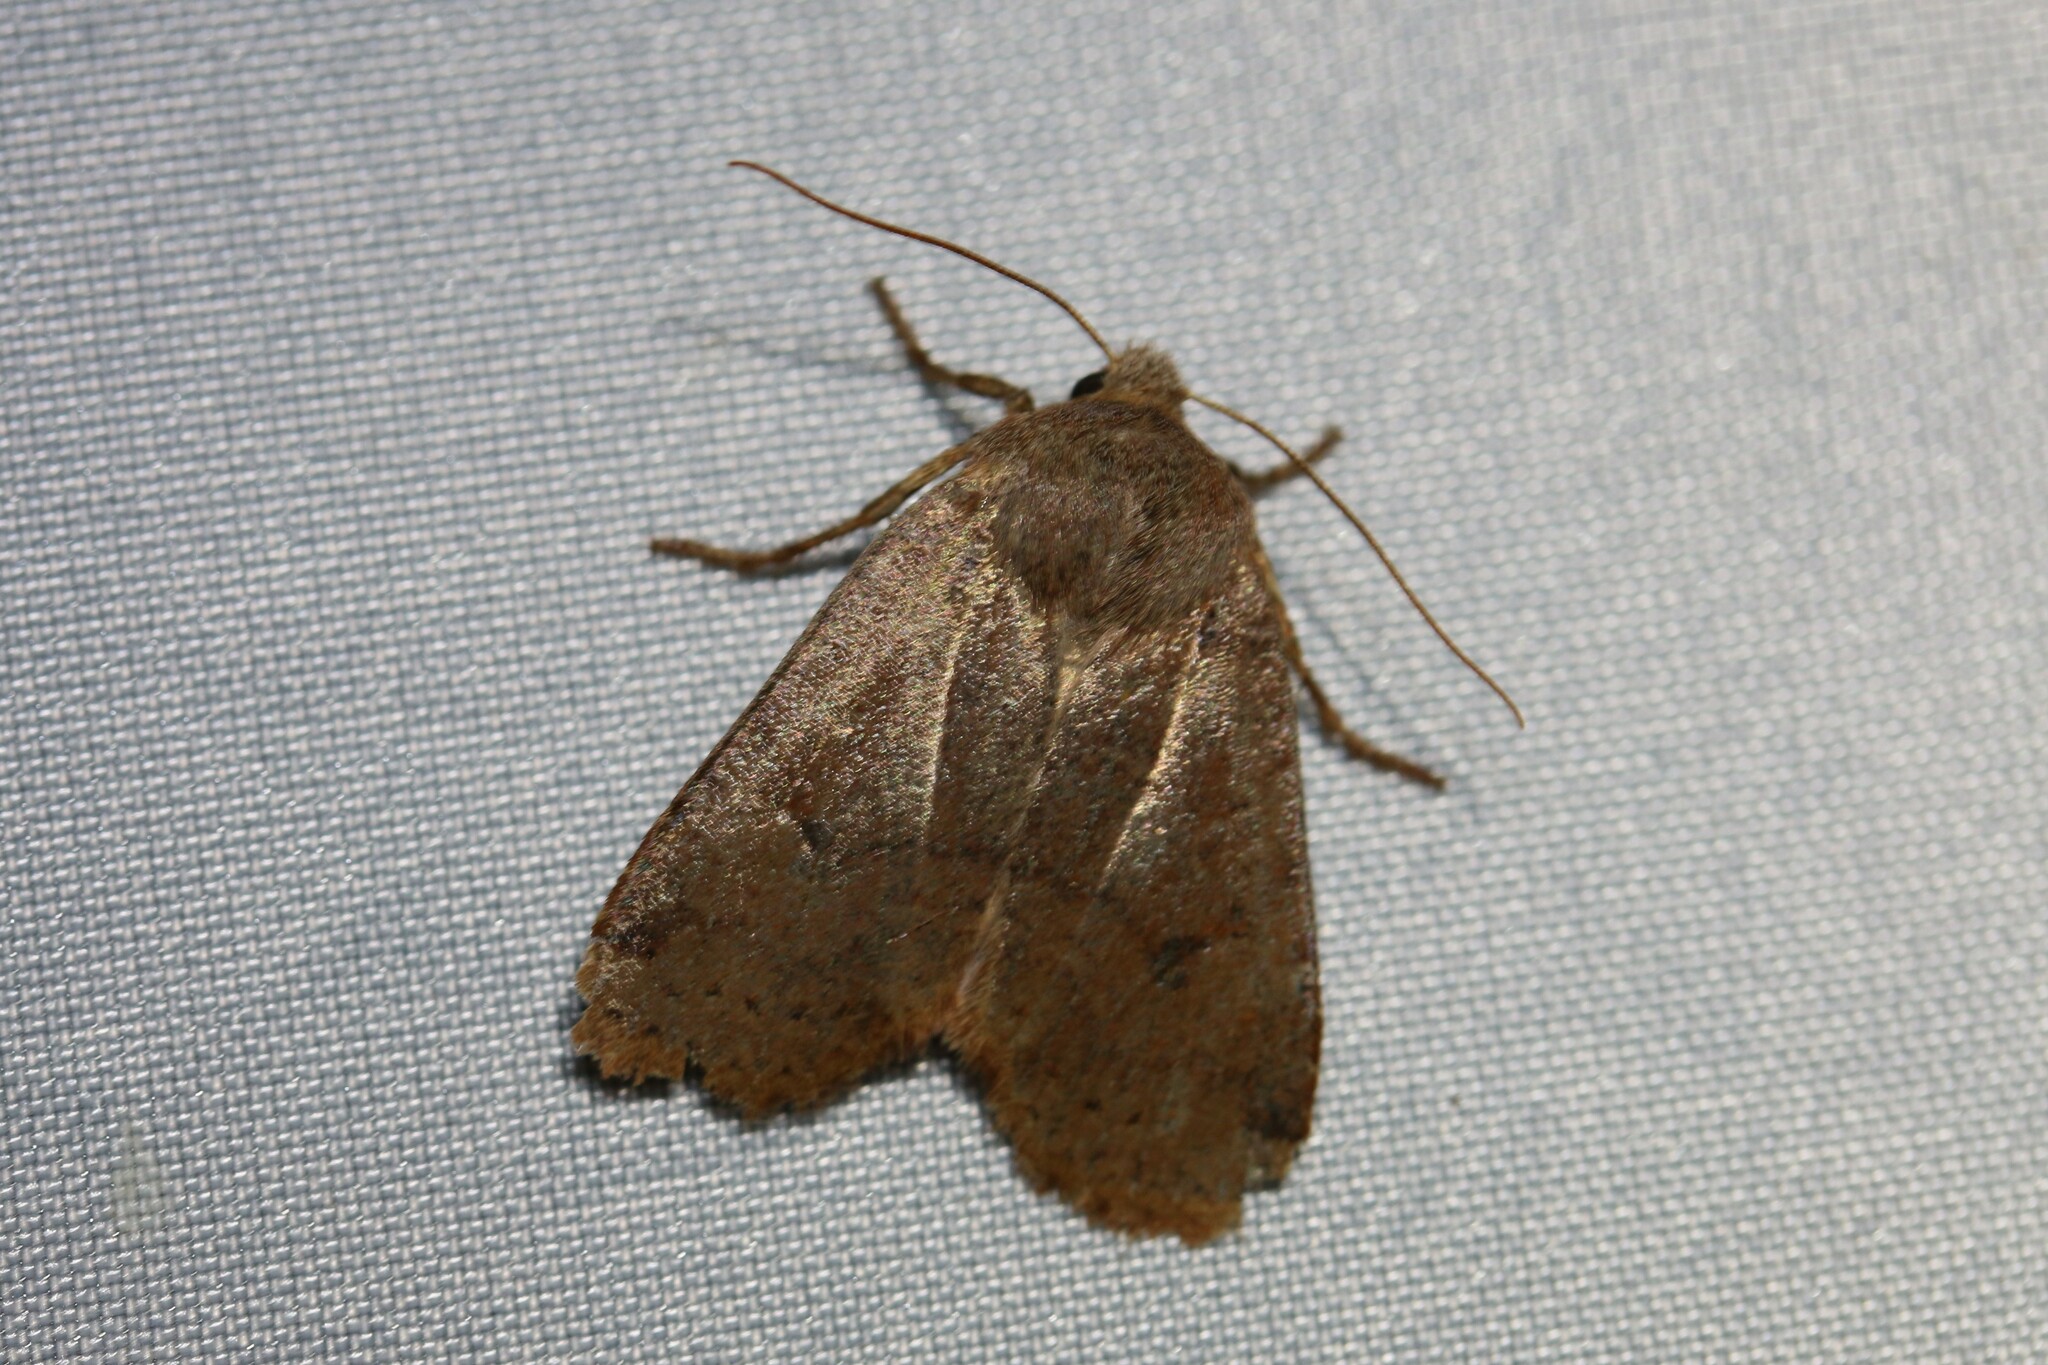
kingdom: Animalia
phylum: Arthropoda
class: Insecta
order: Lepidoptera
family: Noctuidae
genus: Conistra
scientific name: Conistra vaccinii
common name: Chestnut
